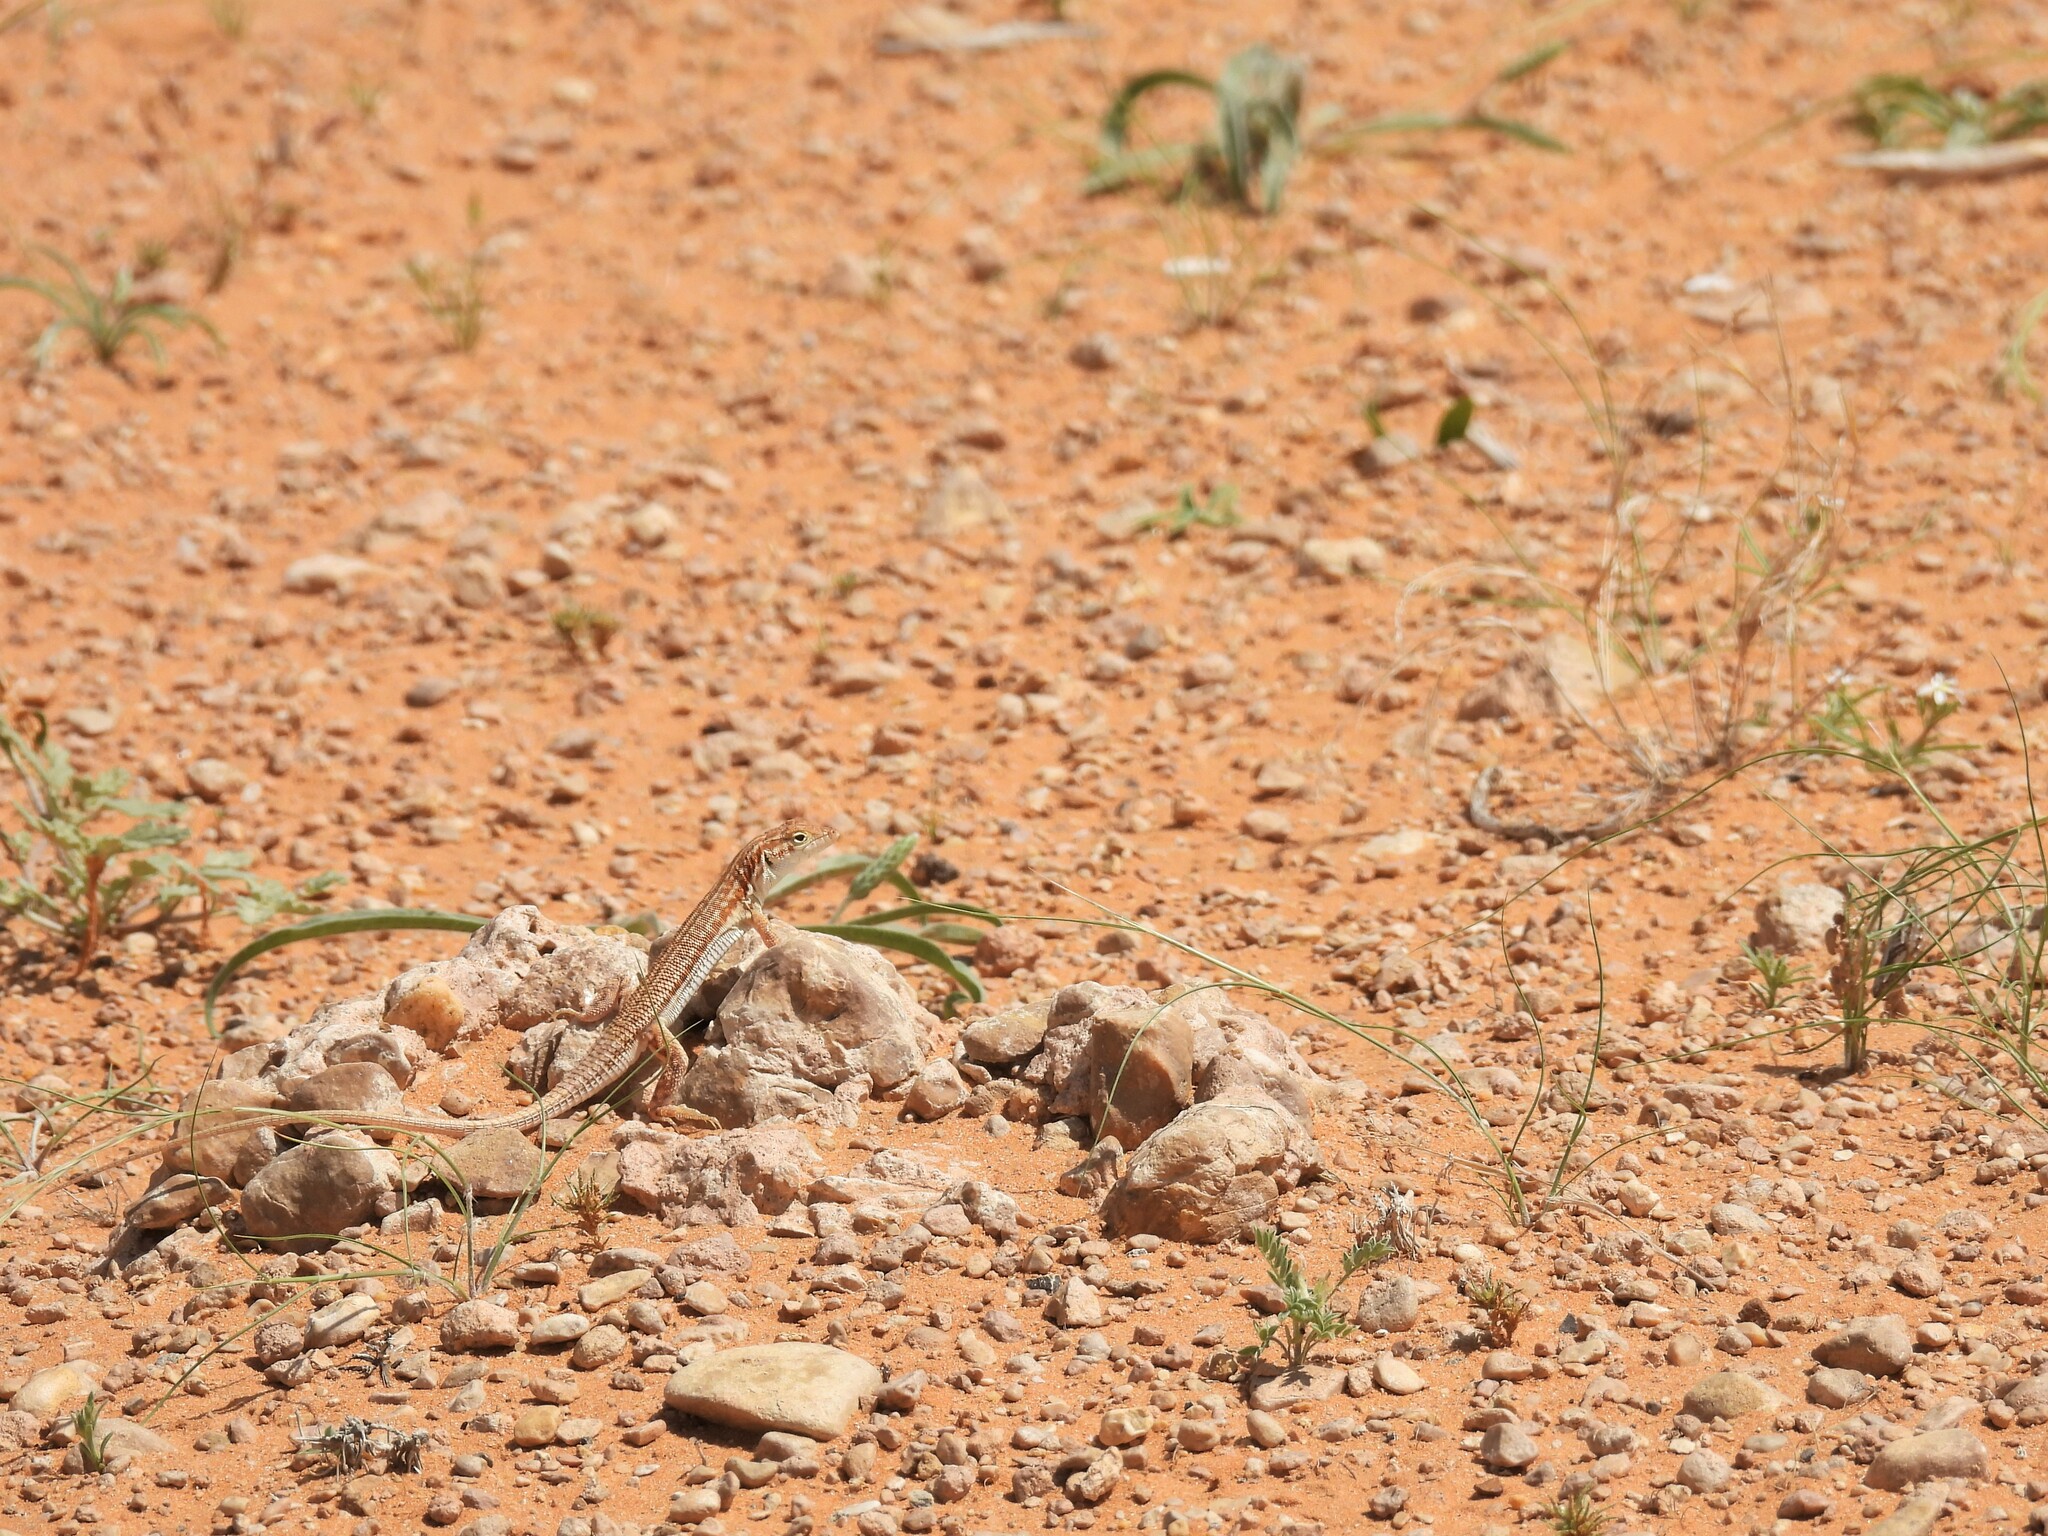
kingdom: Animalia
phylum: Chordata
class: Squamata
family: Lacertidae
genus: Acanthodactylus
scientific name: Acanthodactylus opheodurus
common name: Arnold's fringe-fingered lizard
